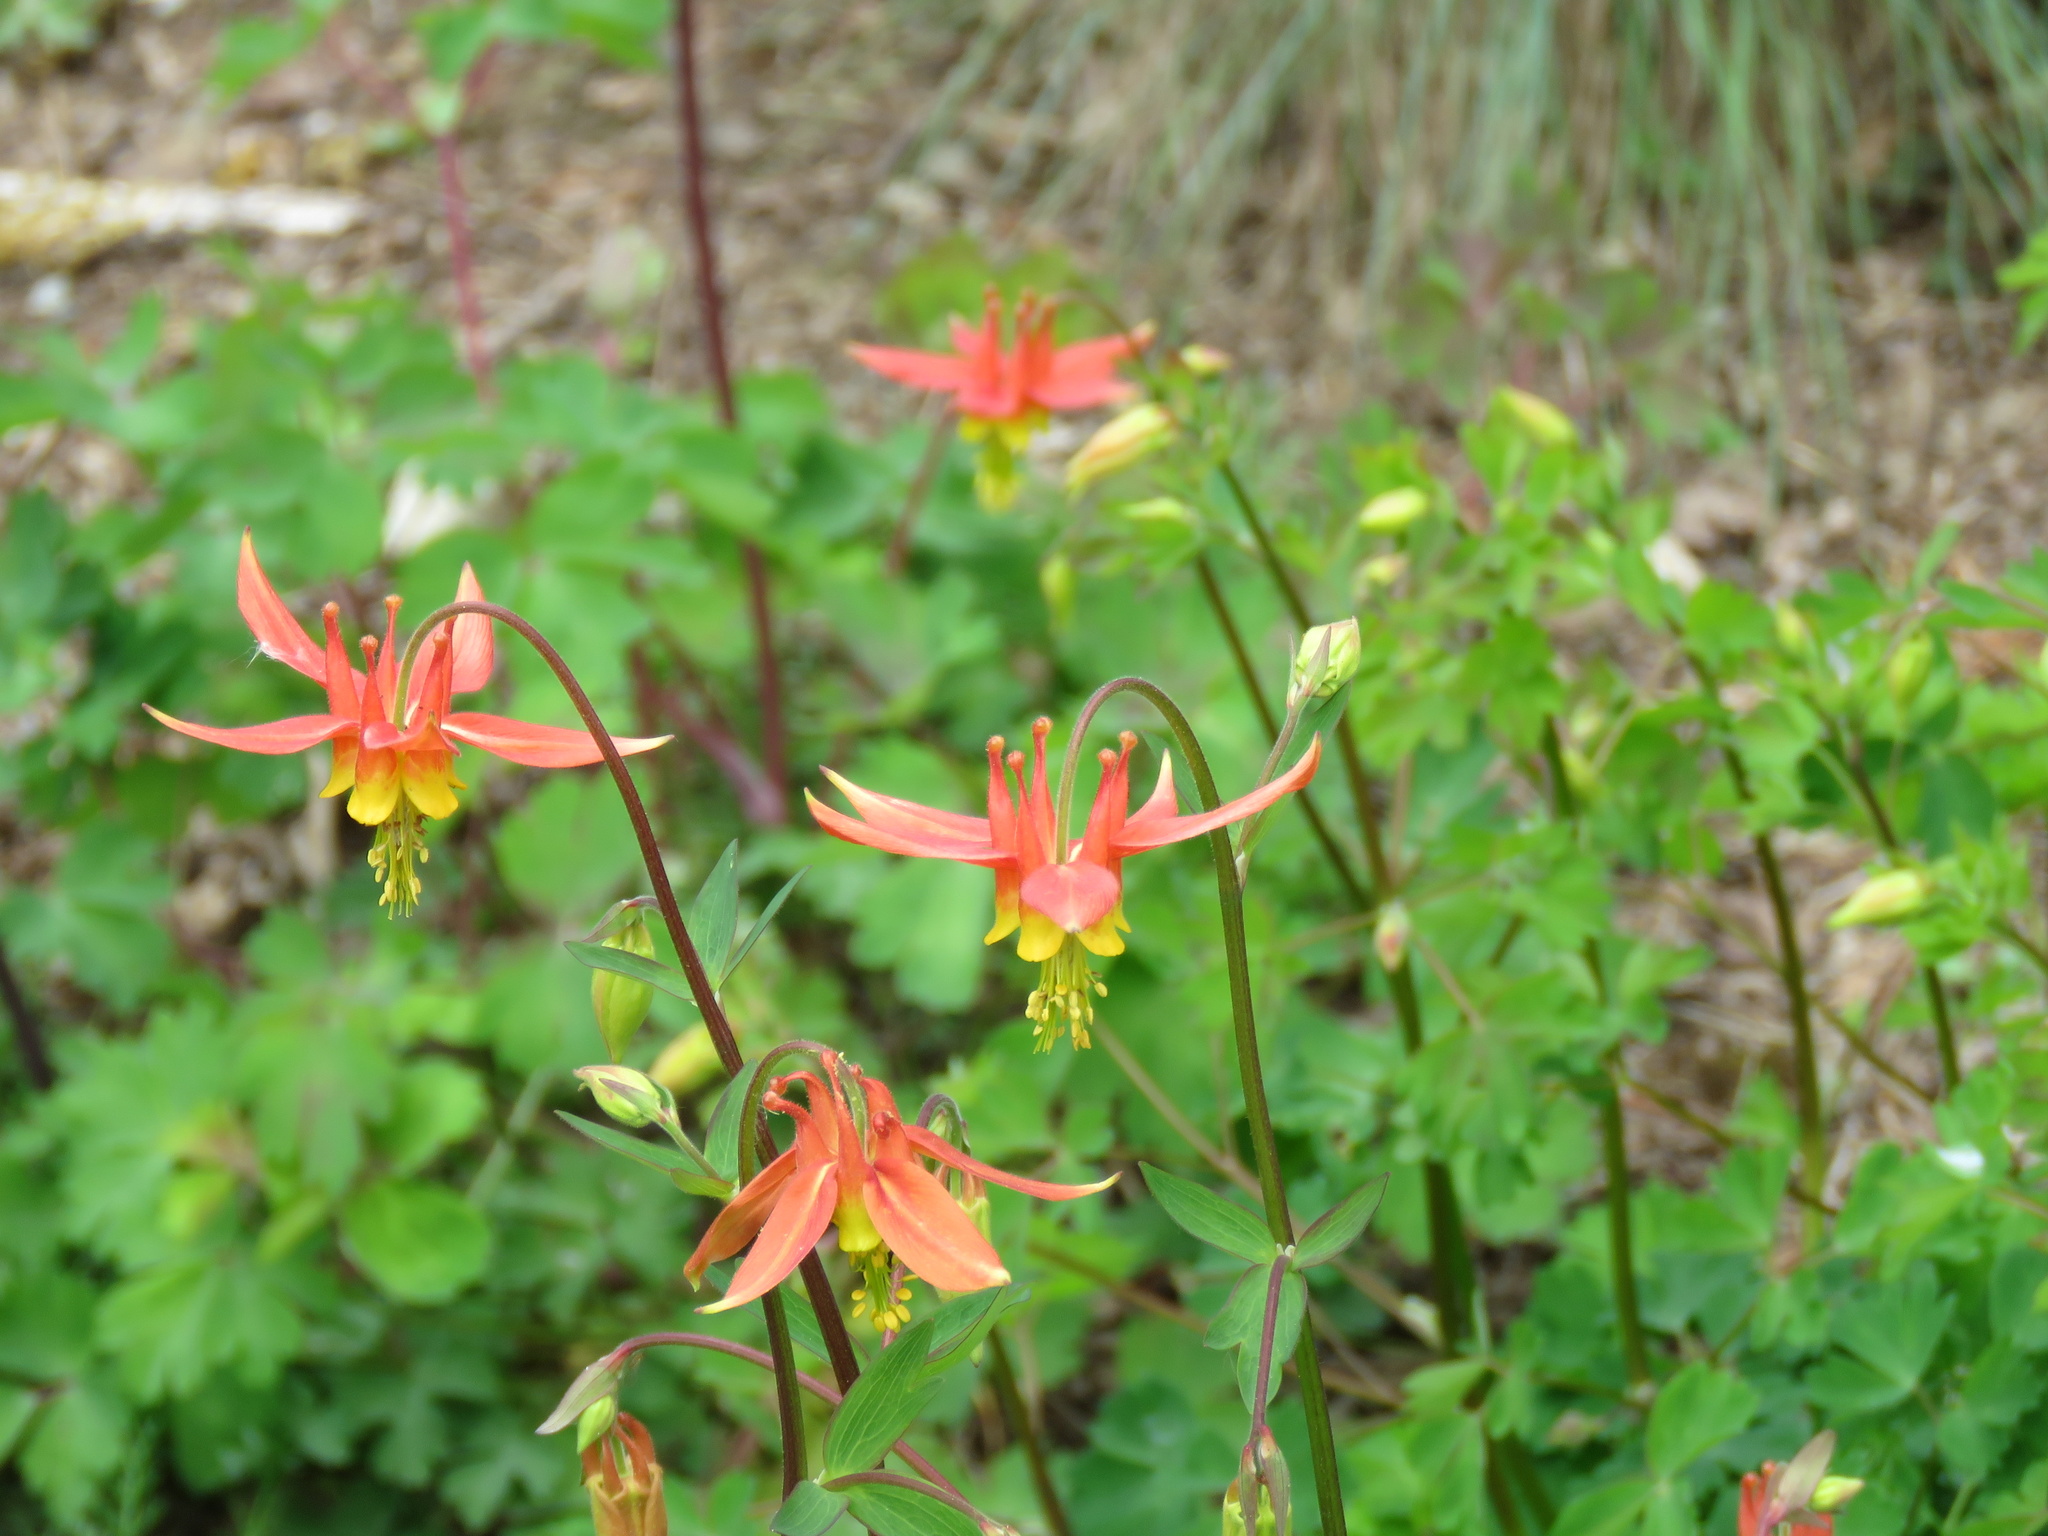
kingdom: Plantae
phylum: Tracheophyta
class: Magnoliopsida
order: Ranunculales
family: Ranunculaceae
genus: Aquilegia
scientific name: Aquilegia formosa
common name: Sitka columbine
